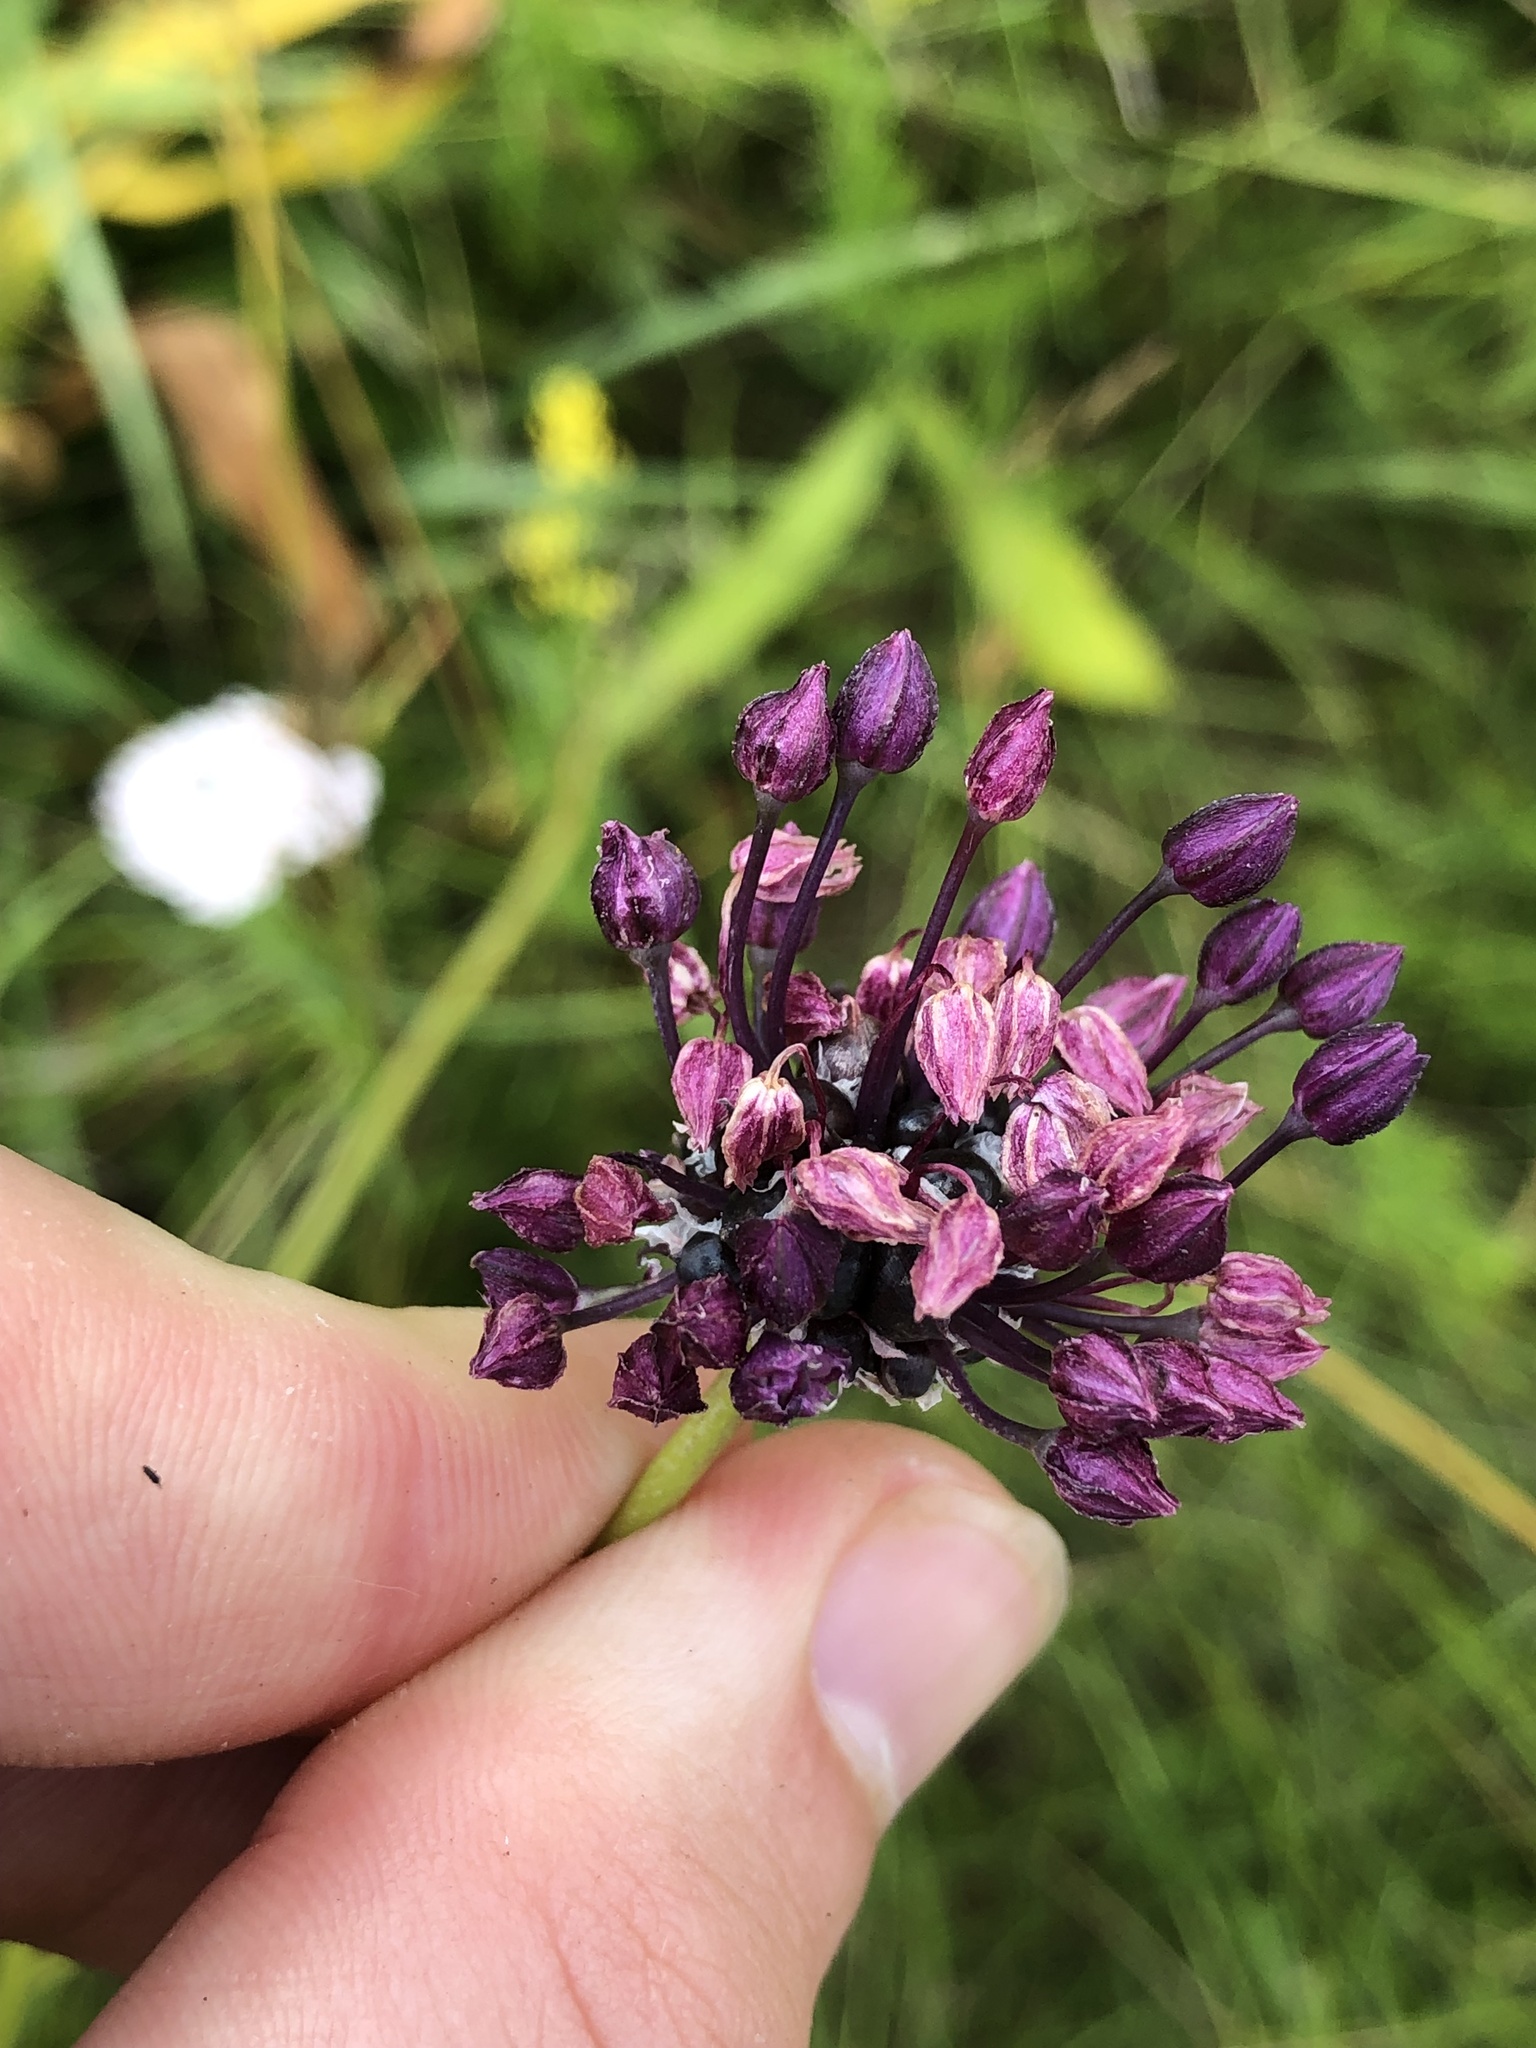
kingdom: Plantae
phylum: Tracheophyta
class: Liliopsida
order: Asparagales
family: Amaryllidaceae
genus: Allium
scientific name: Allium scorodoprasum
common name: Sand leek
